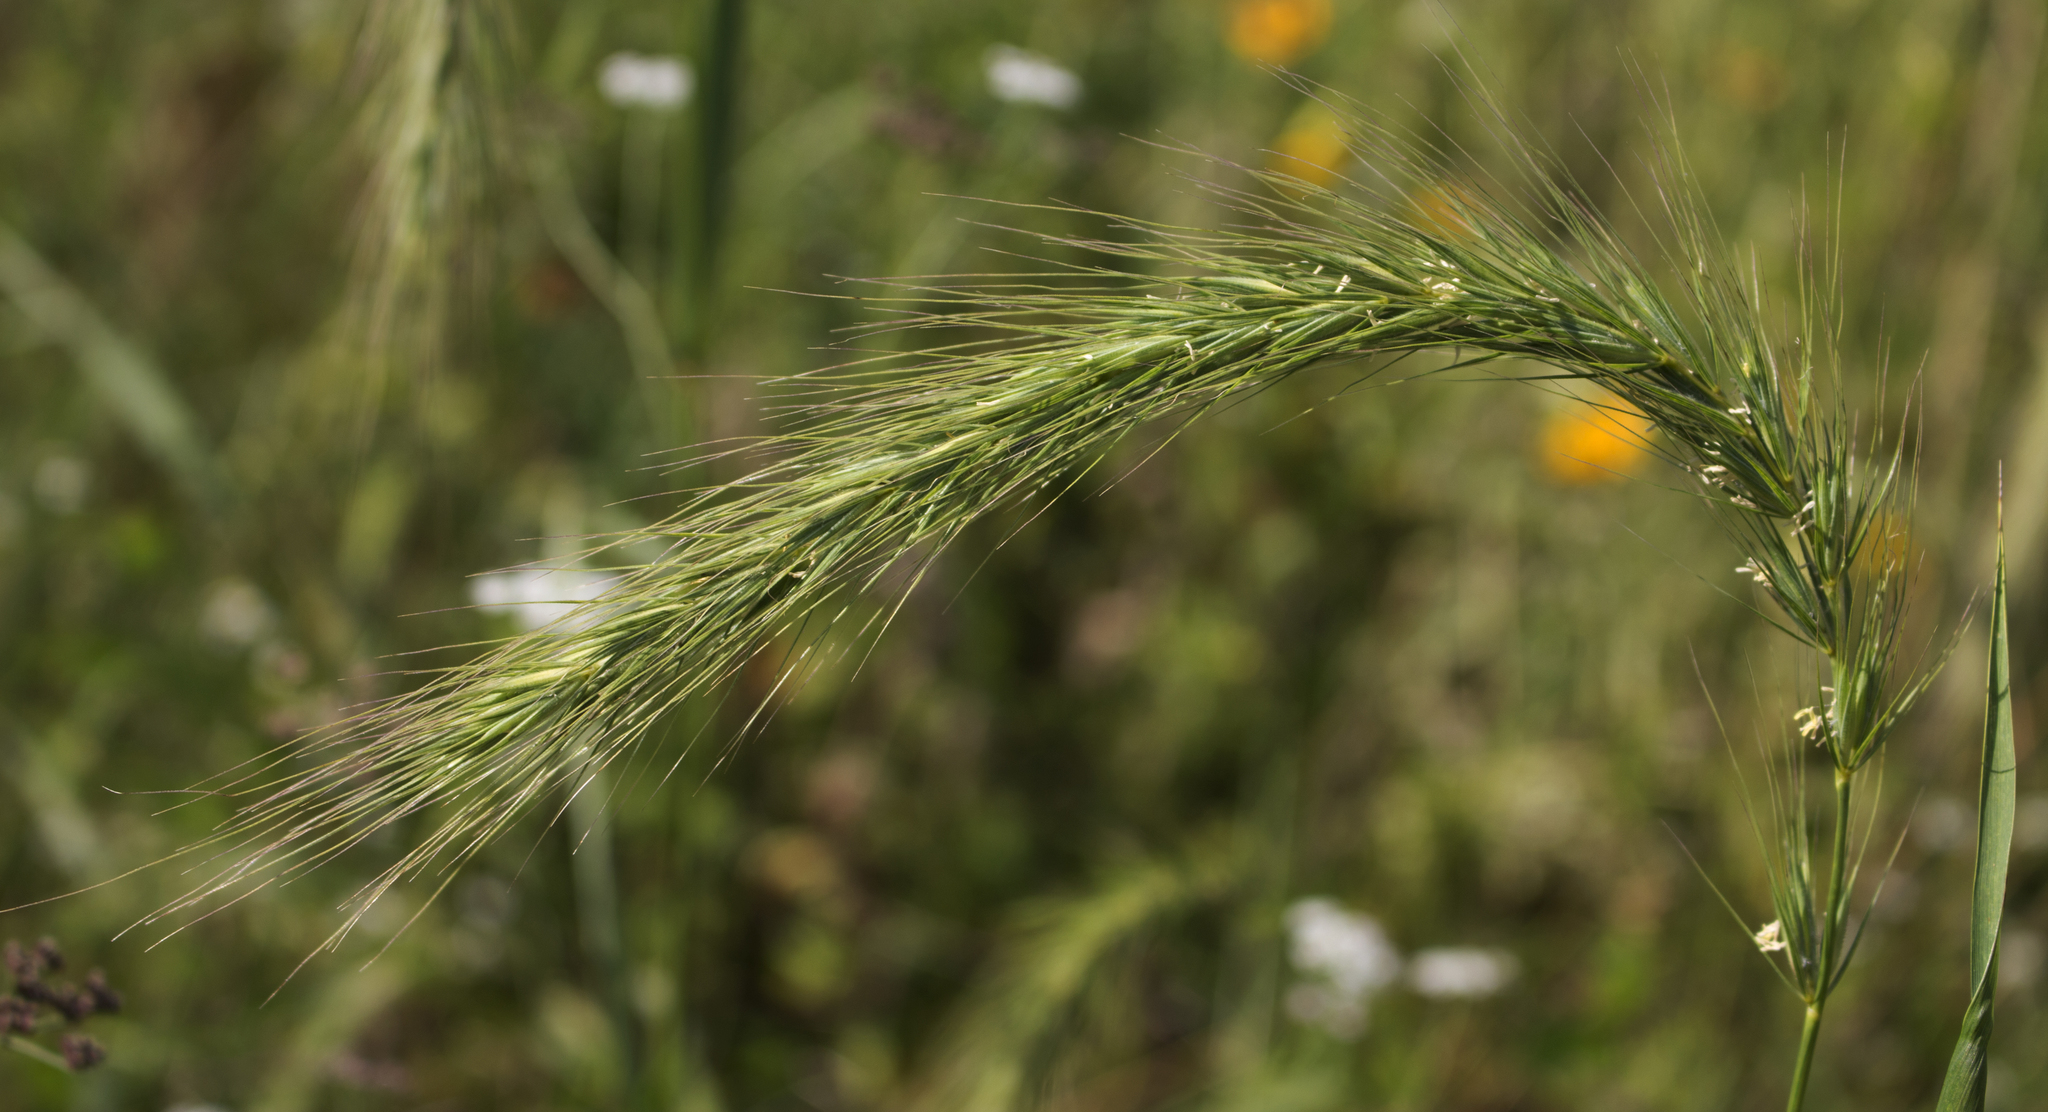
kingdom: Plantae
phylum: Tracheophyta
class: Liliopsida
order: Poales
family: Poaceae
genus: Elymus
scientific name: Elymus canadensis
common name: Canada wild rye
